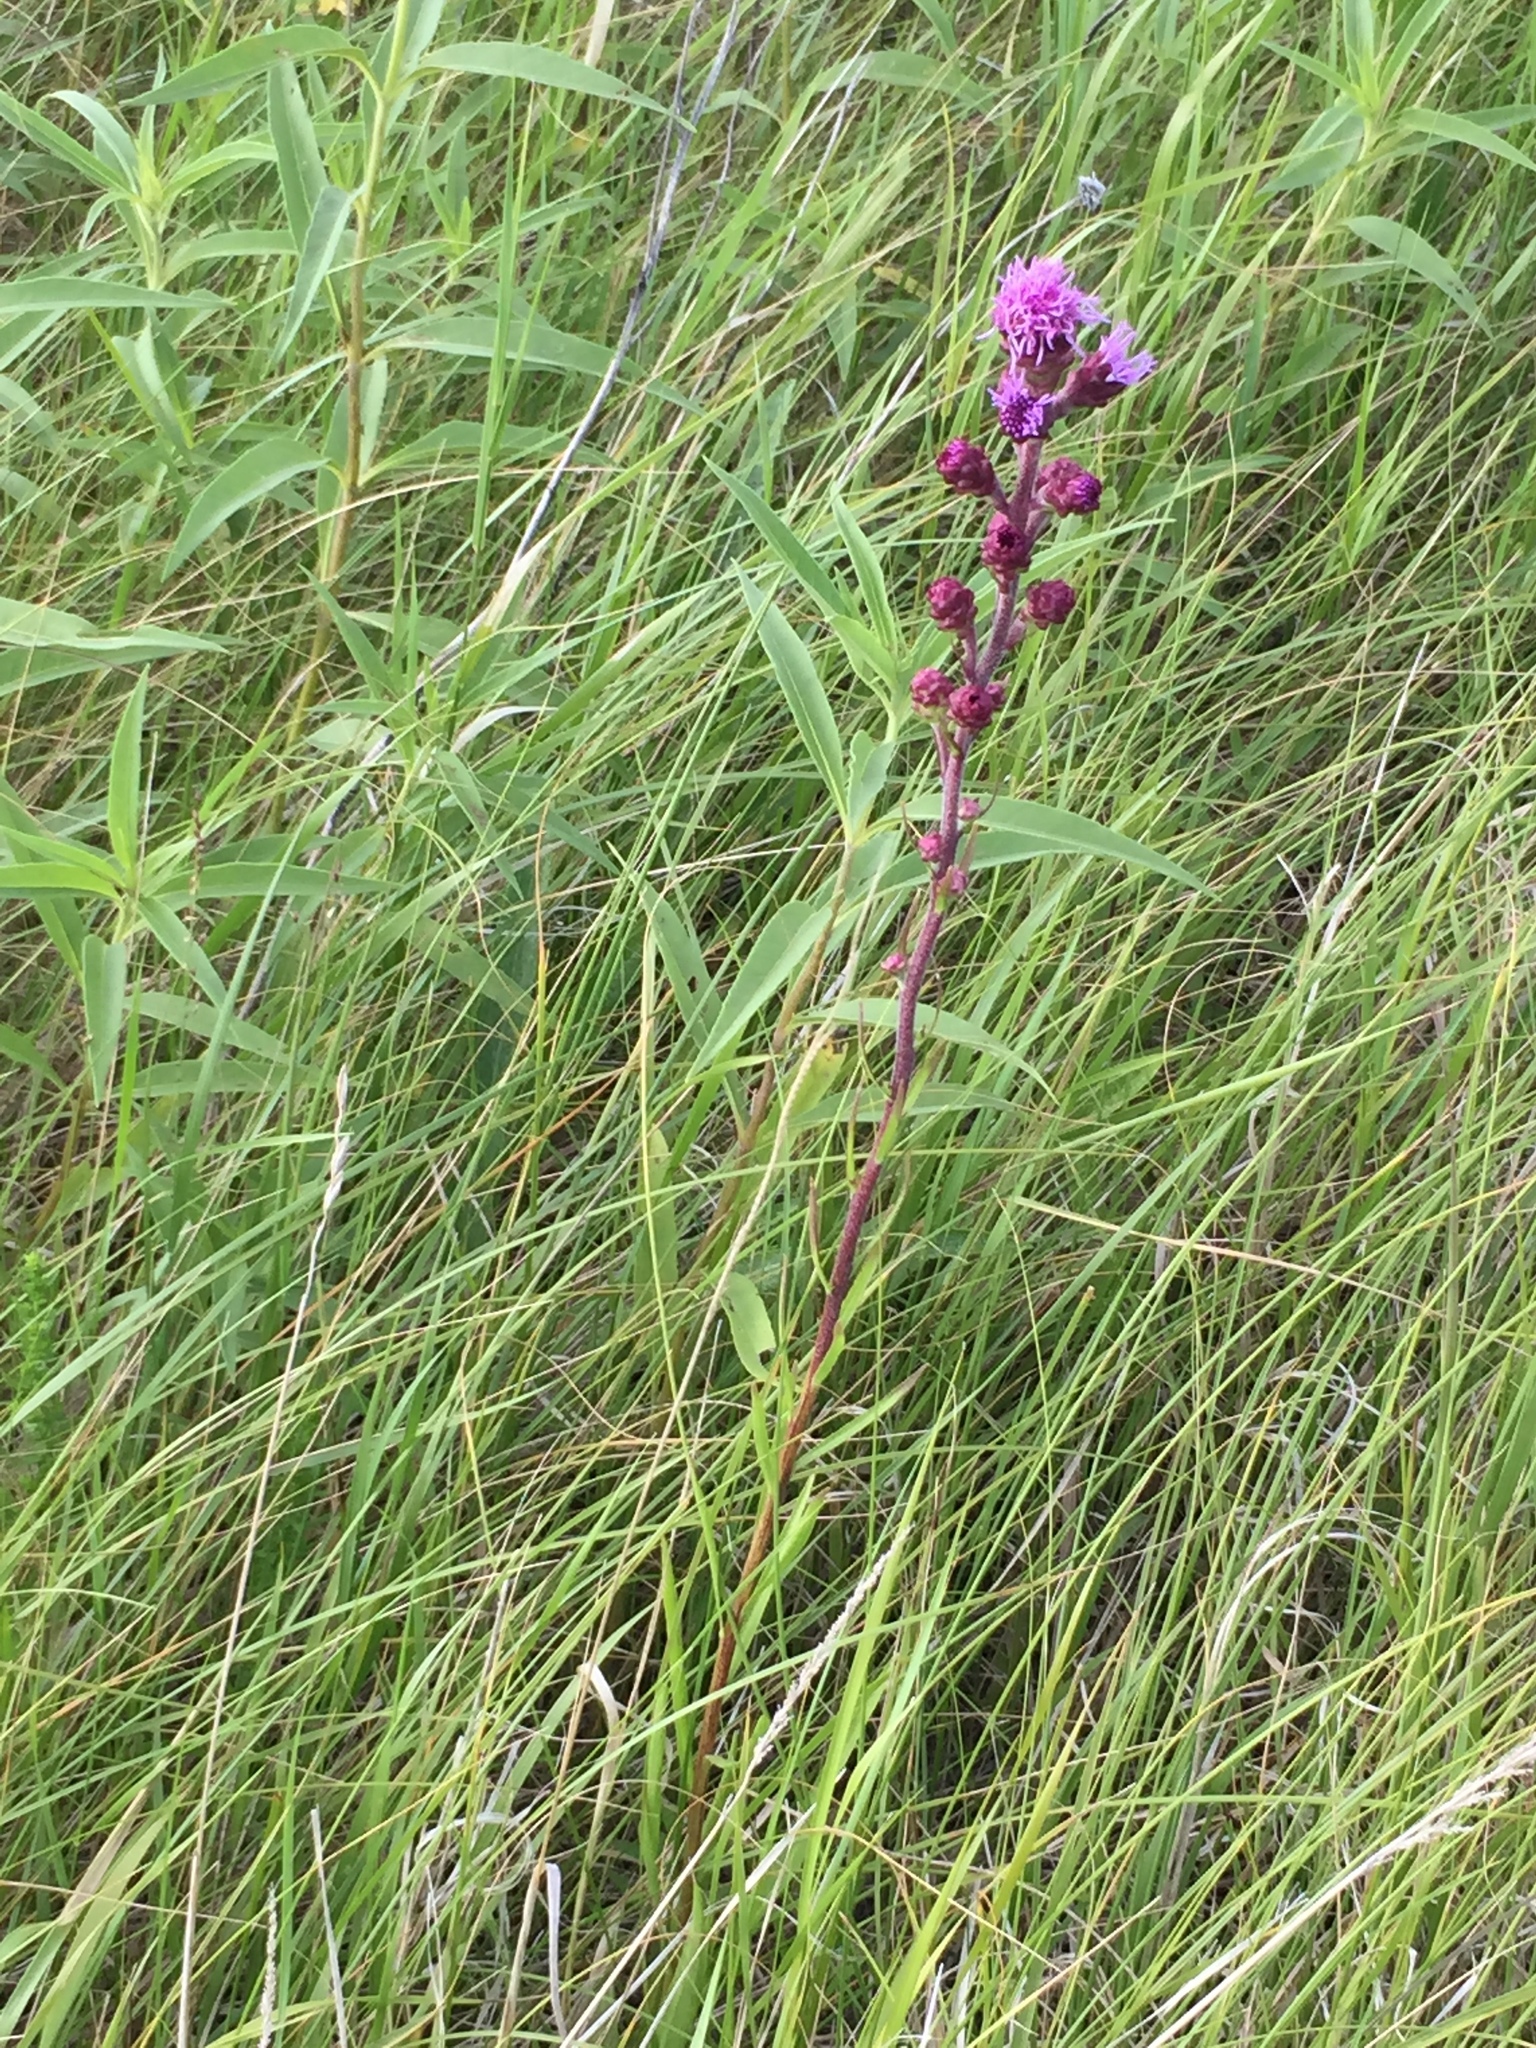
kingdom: Plantae
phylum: Tracheophyta
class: Magnoliopsida
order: Asterales
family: Asteraceae
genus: Liatris
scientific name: Liatris ligulistylis
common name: Northern plains gayfeather
